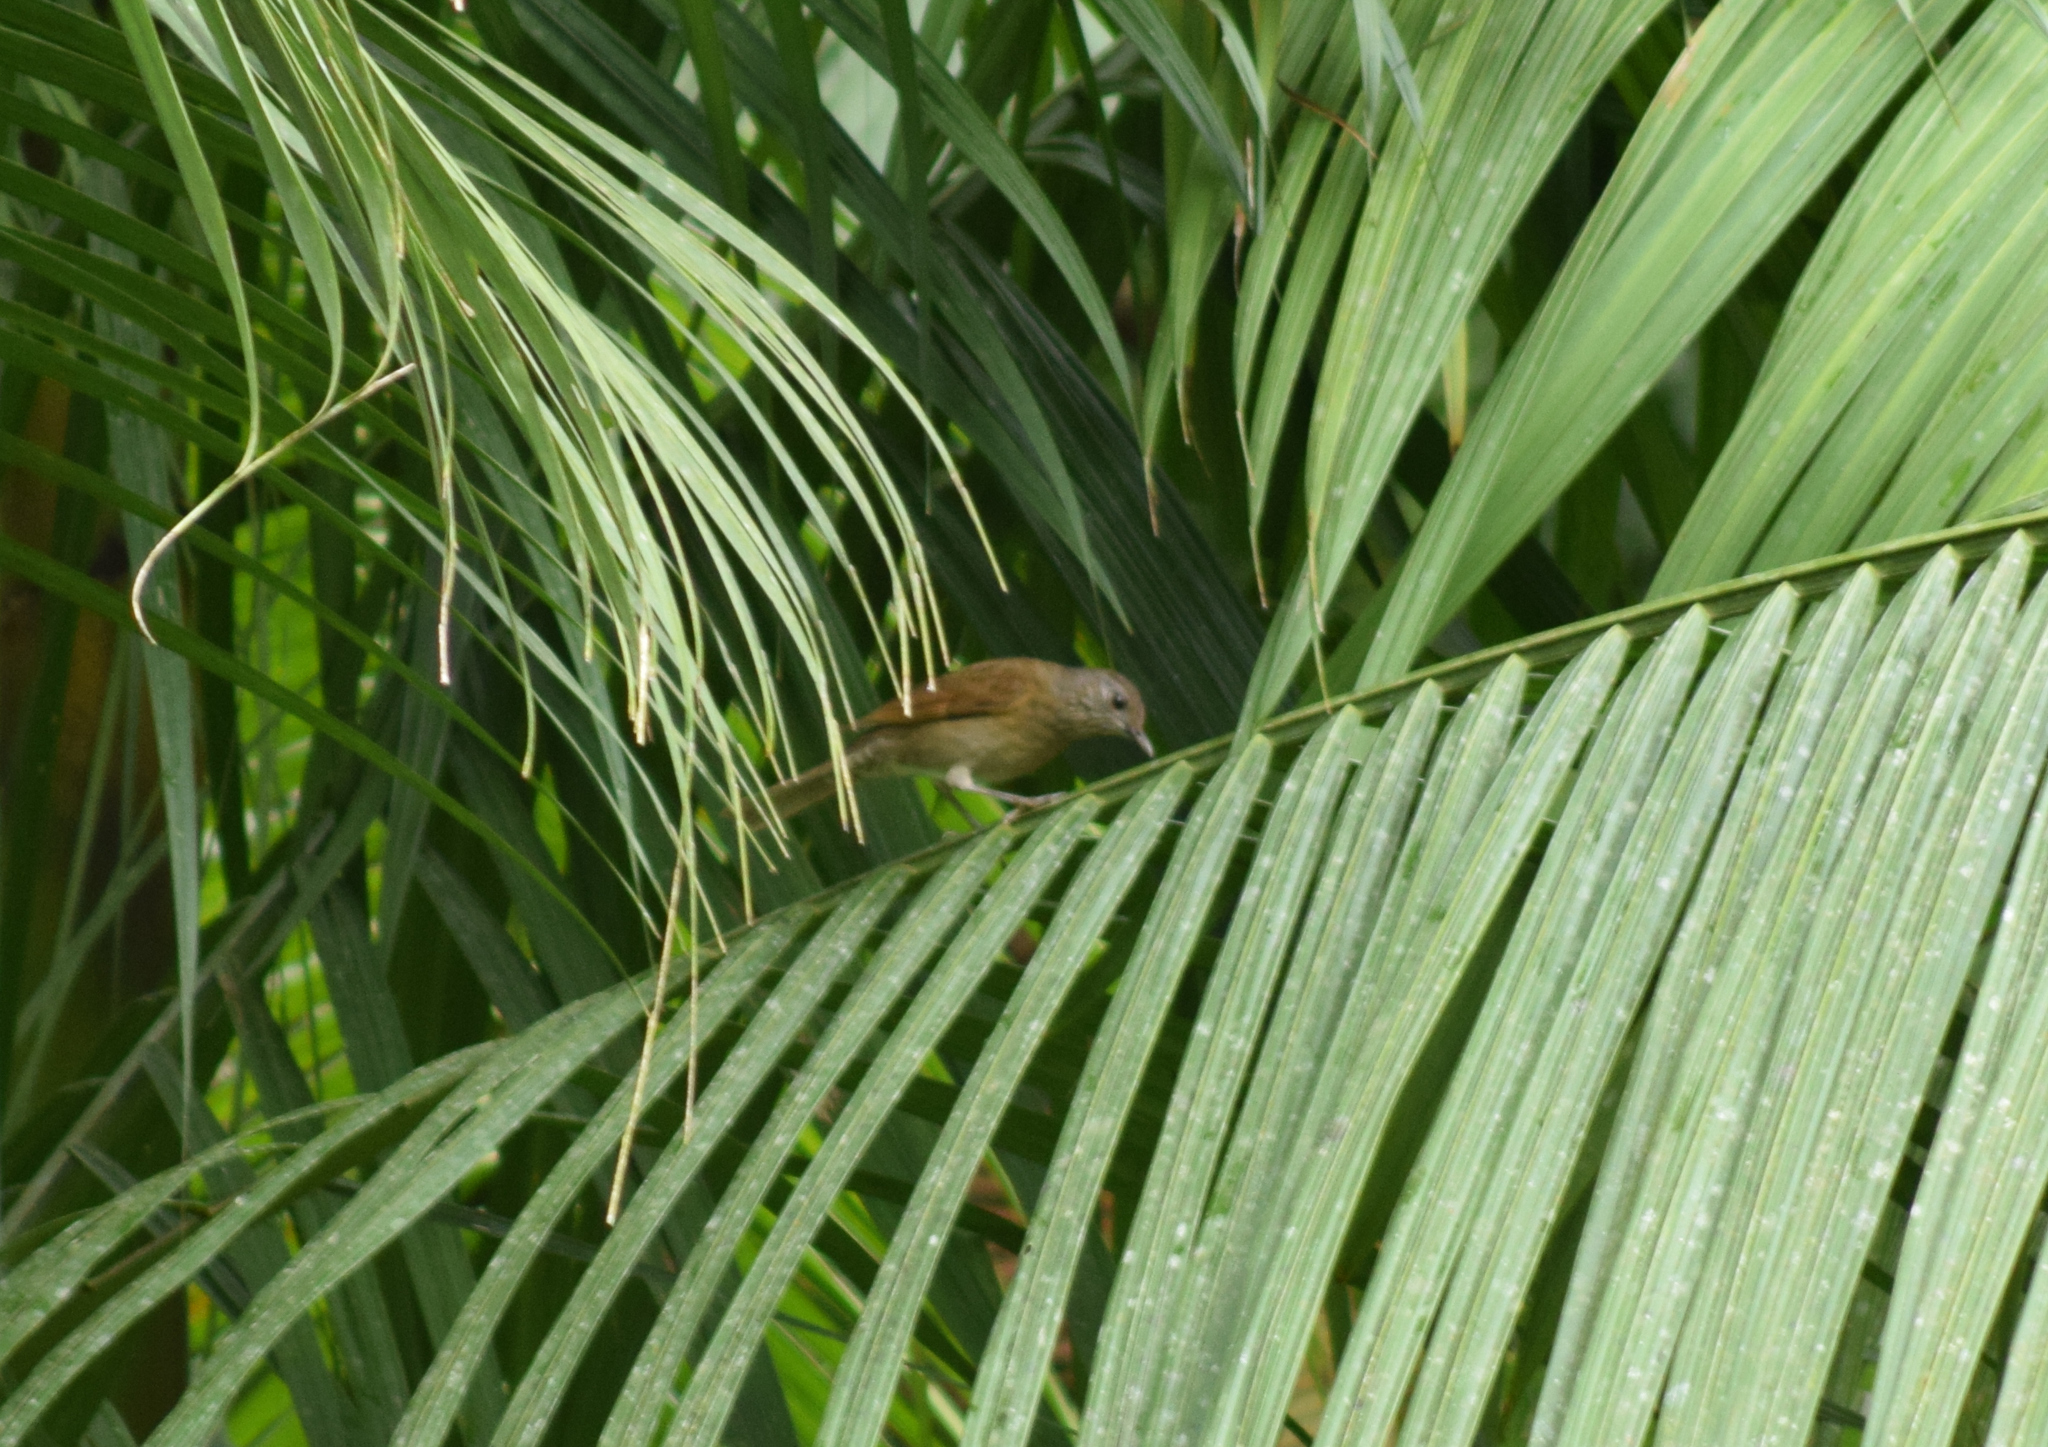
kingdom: Animalia
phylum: Chordata
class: Aves
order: Passeriformes
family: Turdidae
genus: Turdus
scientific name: Turdus leucomelas
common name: Pale-breasted thrush
